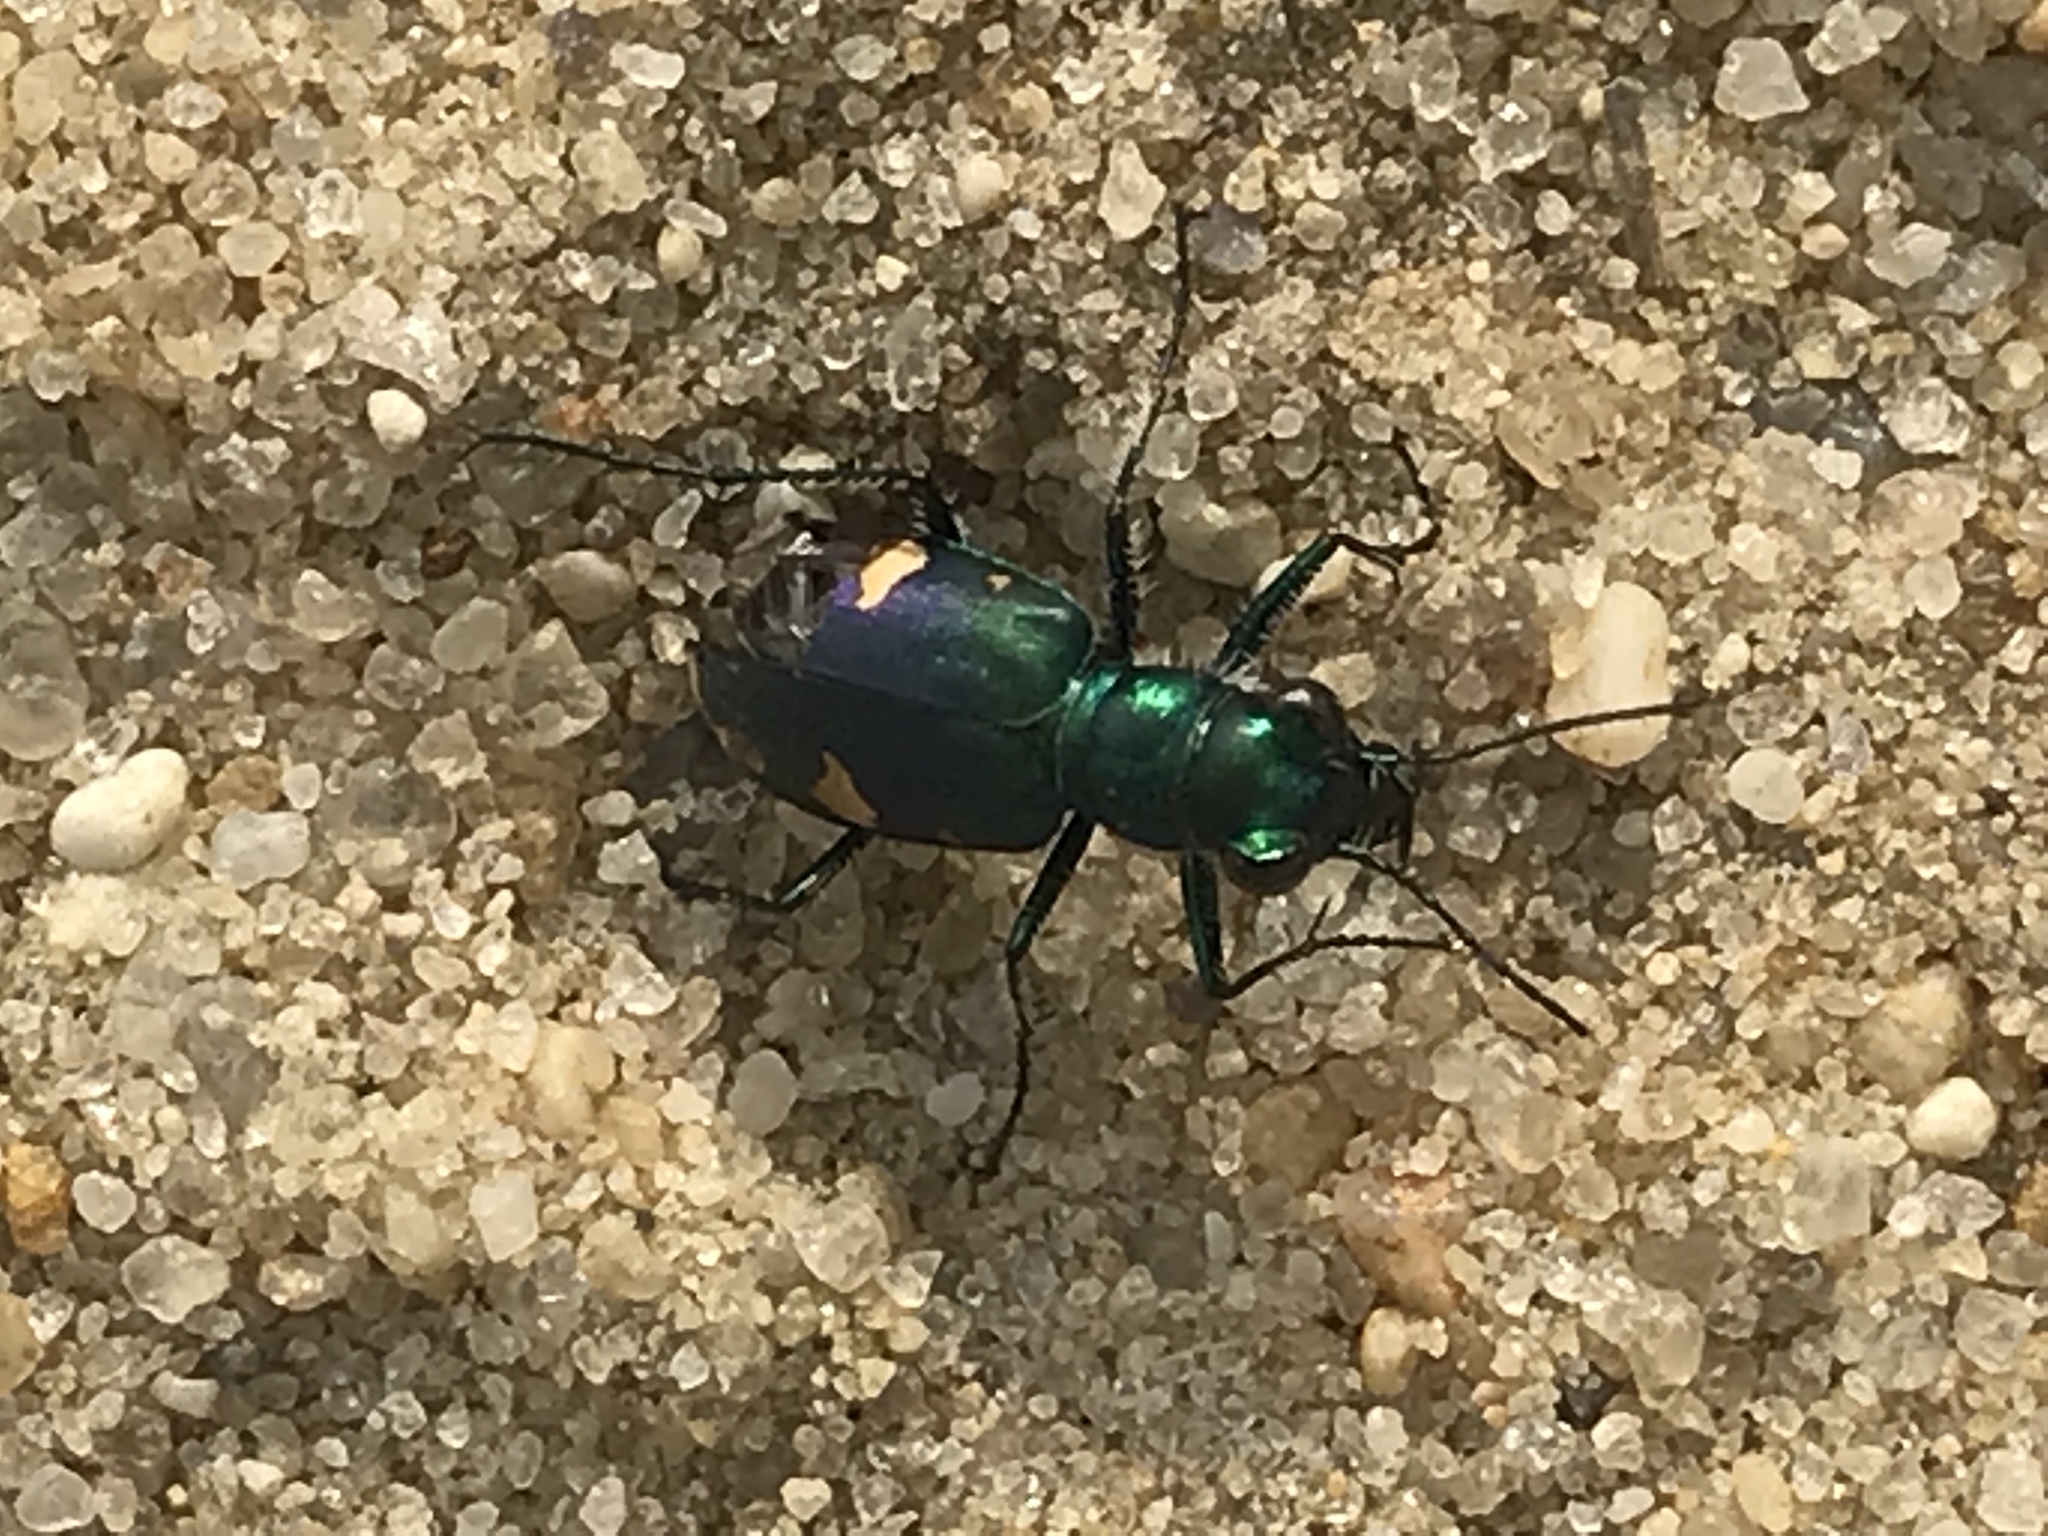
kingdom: Animalia
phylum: Arthropoda
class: Insecta
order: Coleoptera
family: Carabidae
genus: Cicindela
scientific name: Cicindela scutellaris
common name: Festive tiger beetle
